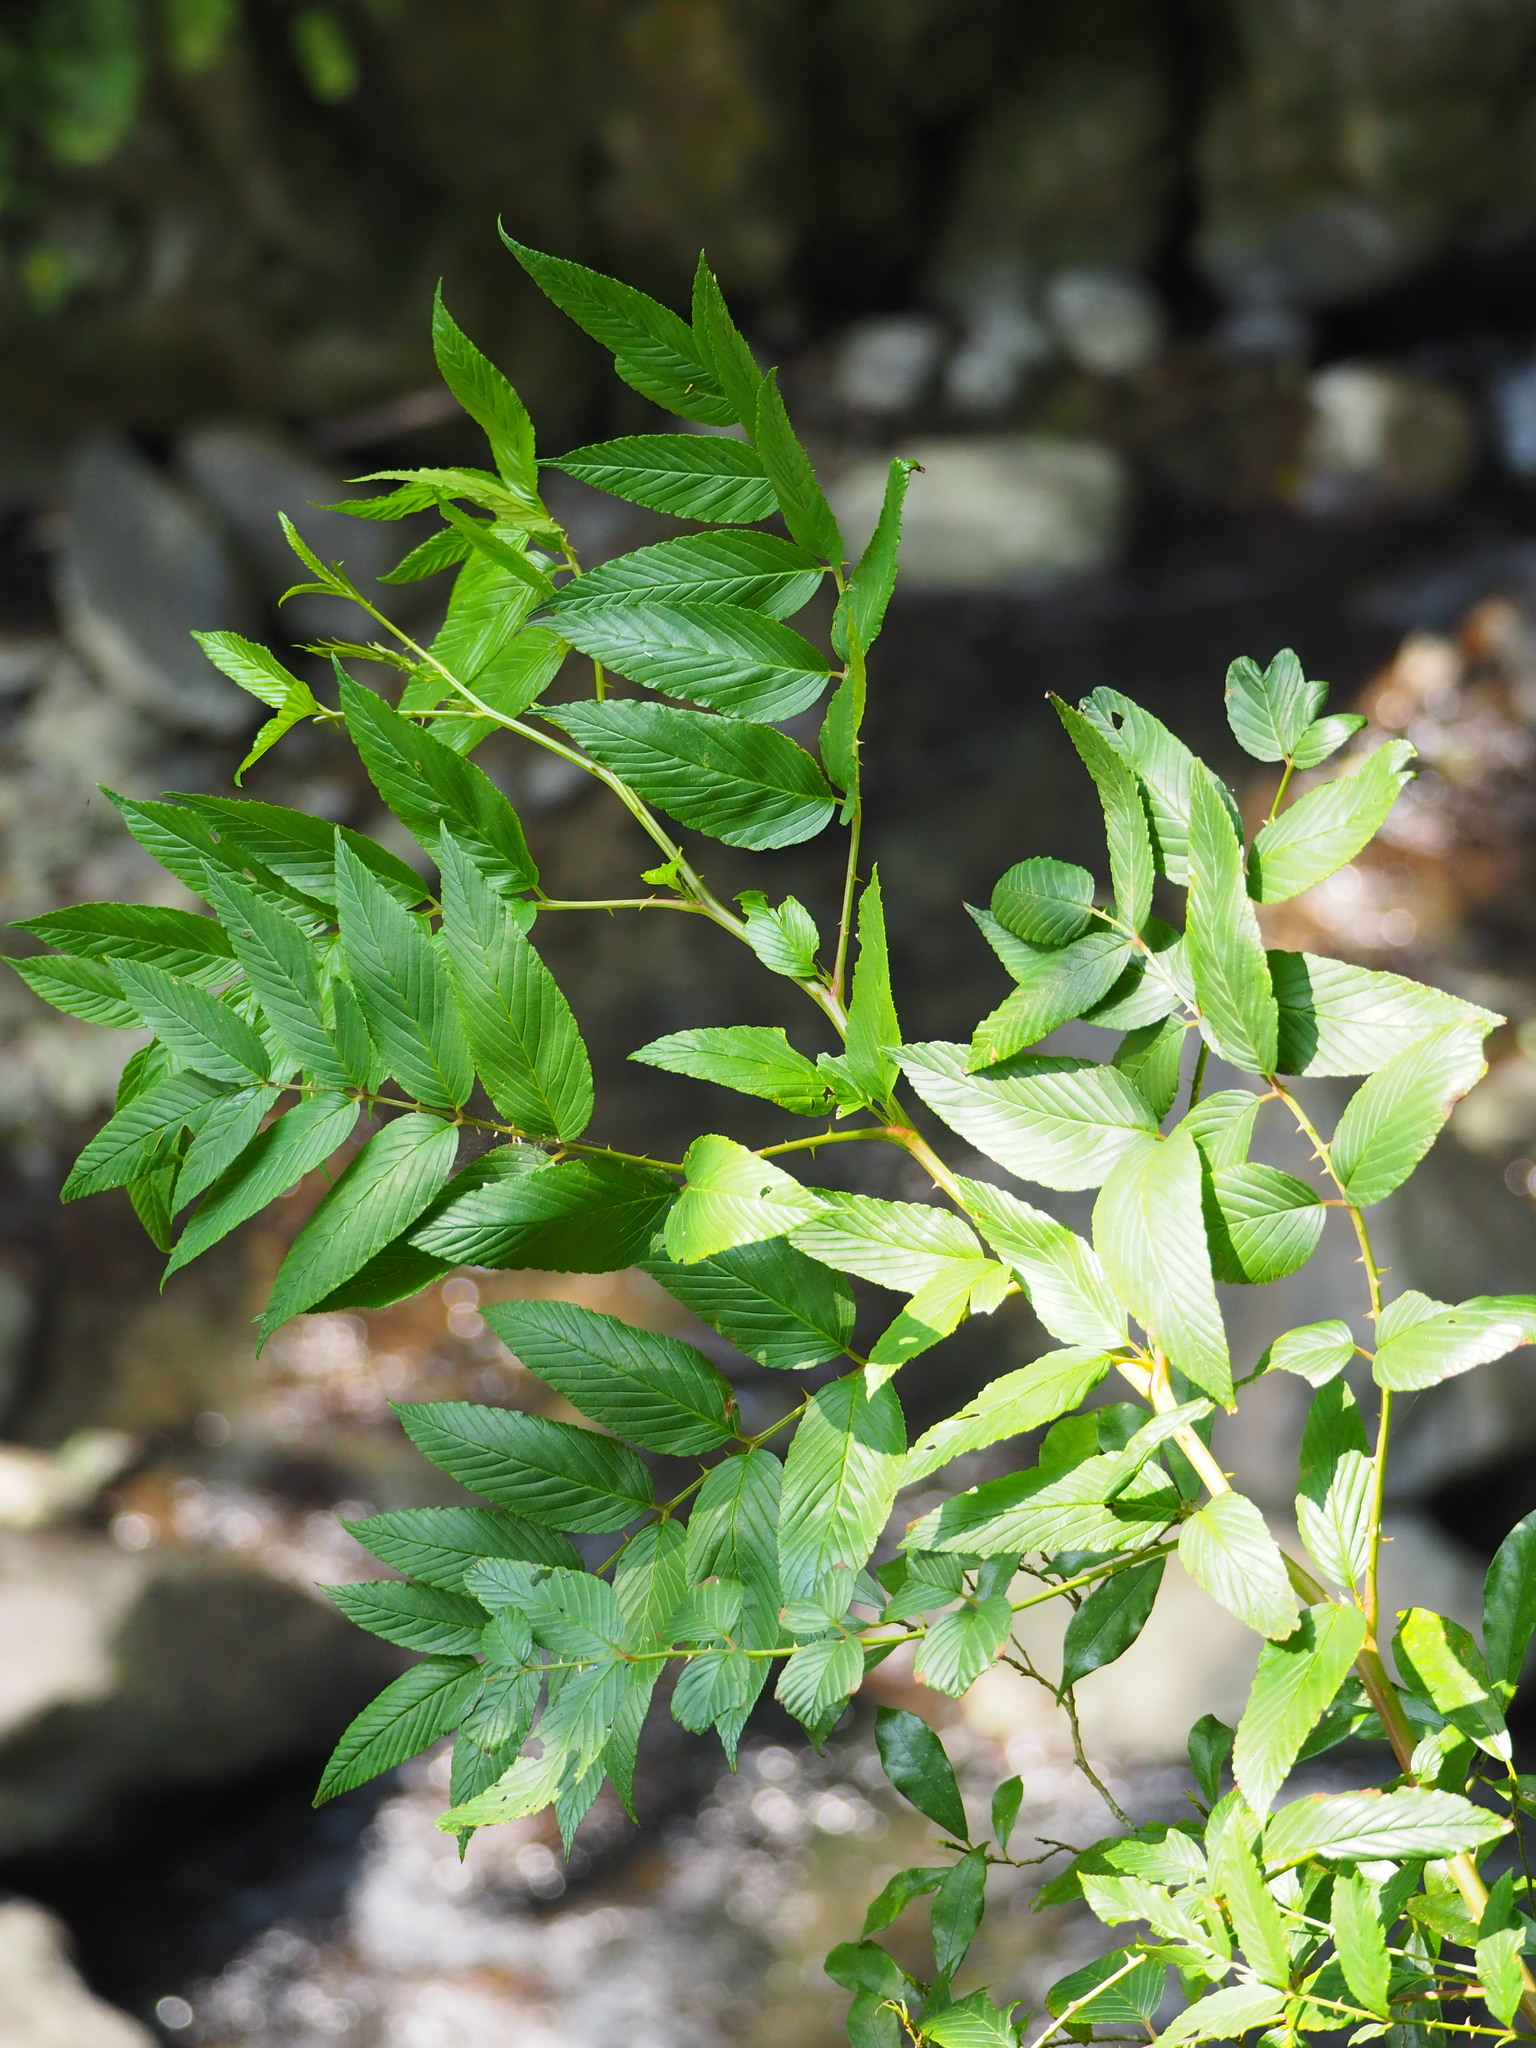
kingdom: Plantae
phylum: Tracheophyta
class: Magnoliopsida
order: Rosales
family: Rosaceae
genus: Rubus
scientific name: Rubus fraxinifolius
